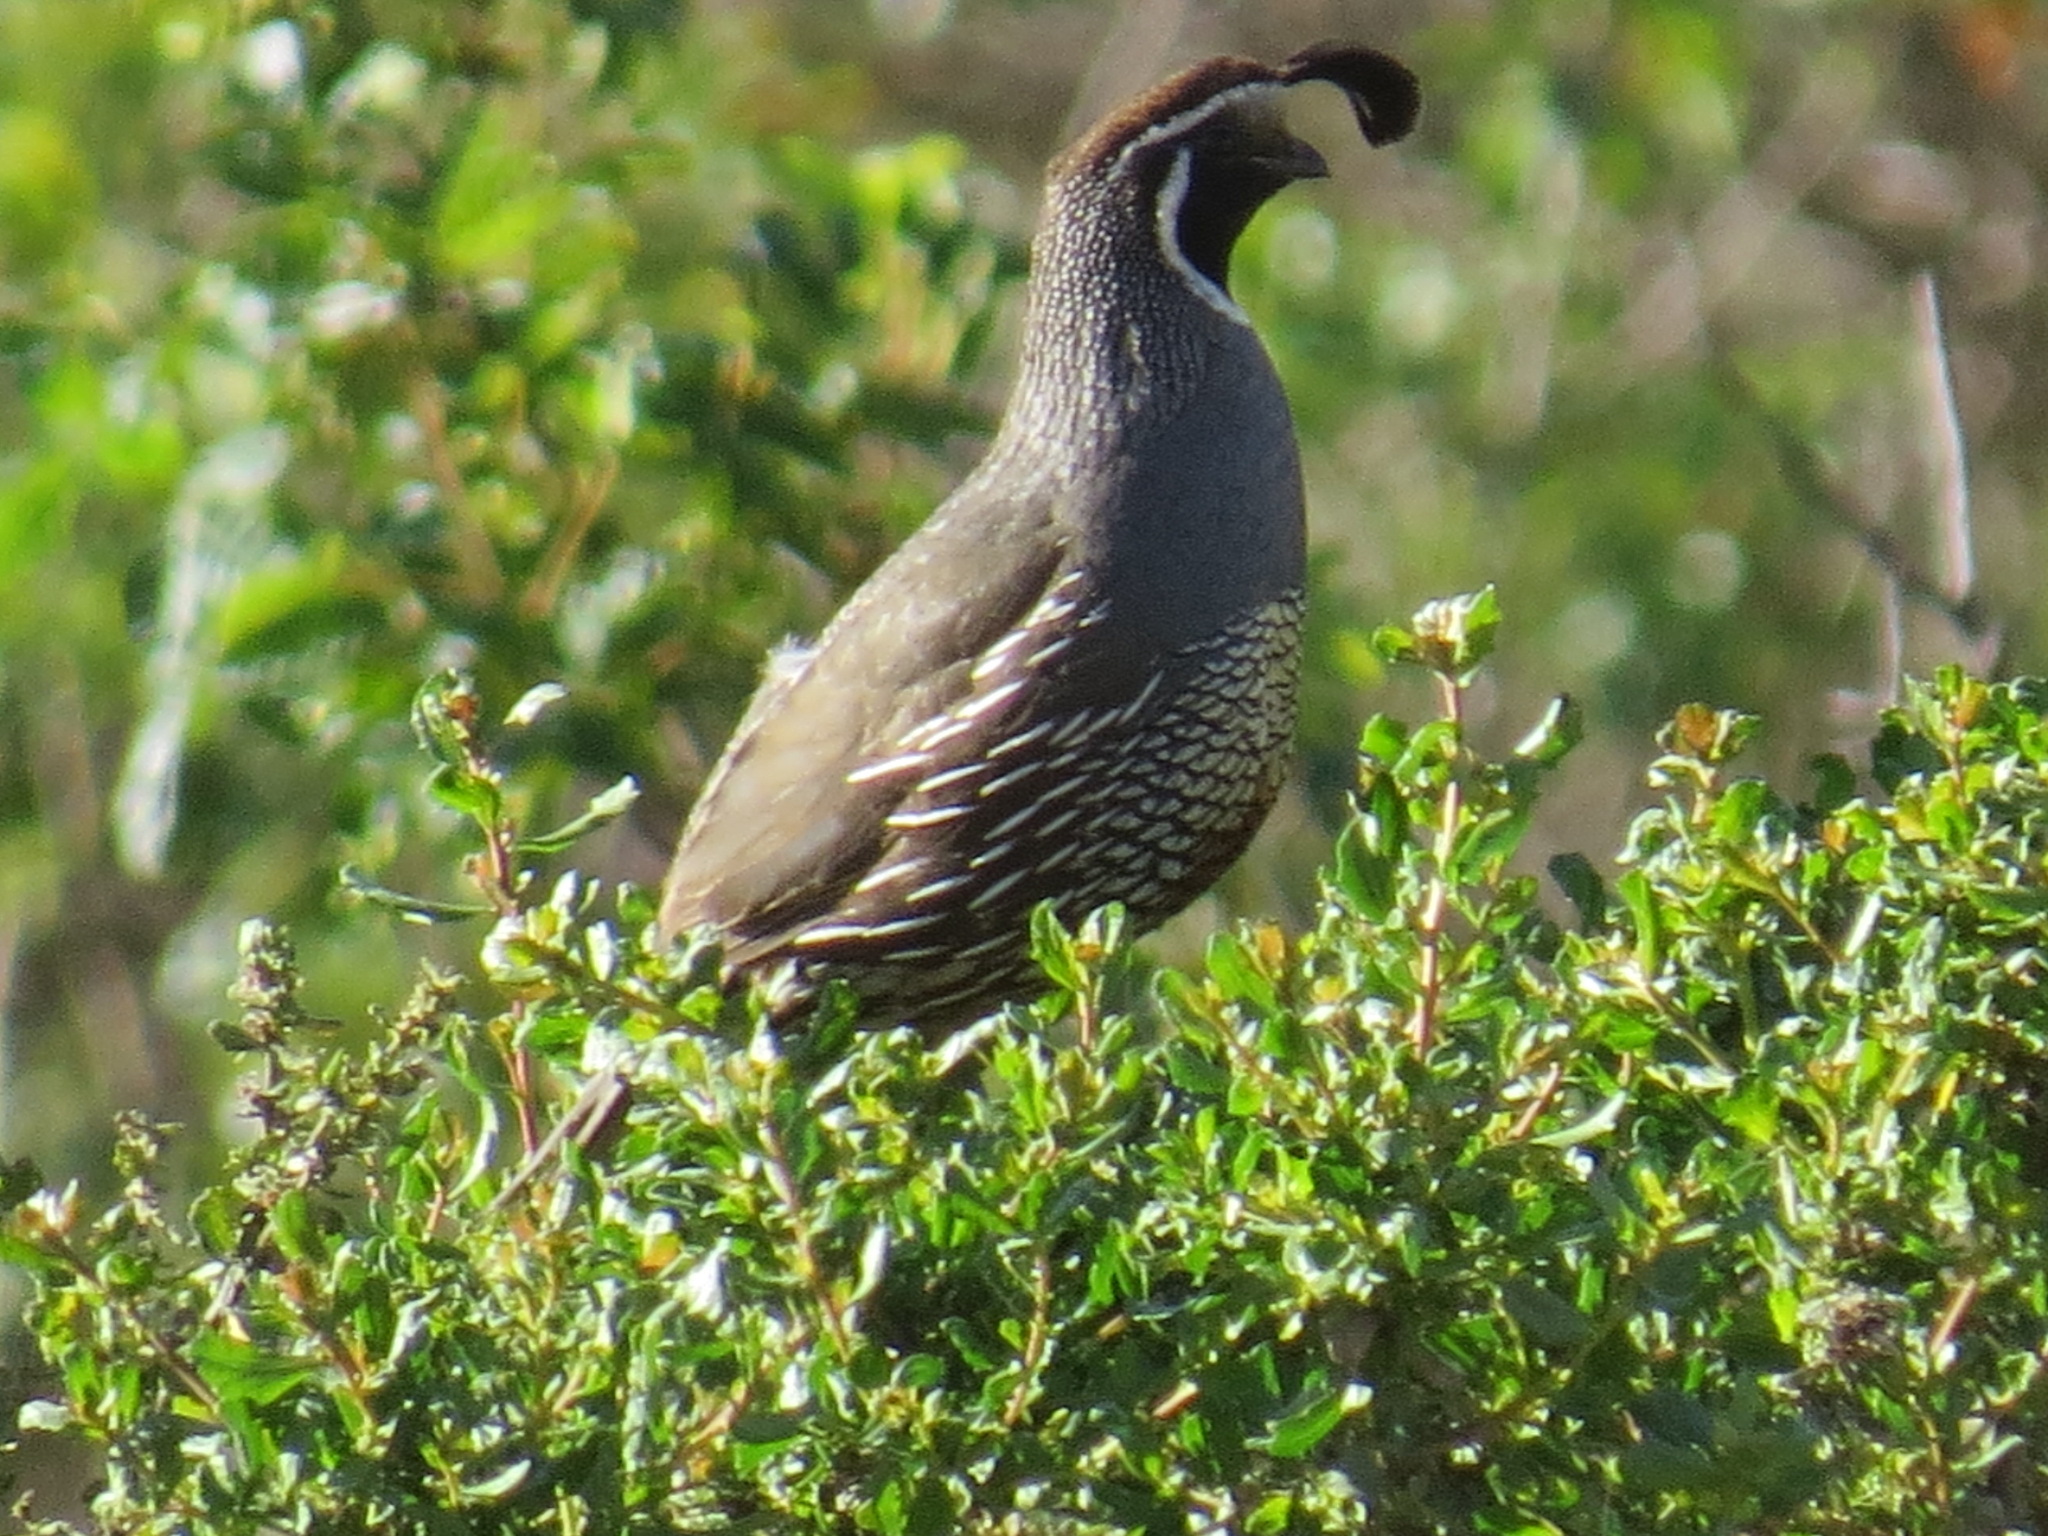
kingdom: Animalia
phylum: Chordata
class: Aves
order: Galliformes
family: Odontophoridae
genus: Callipepla
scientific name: Callipepla californica
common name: California quail
